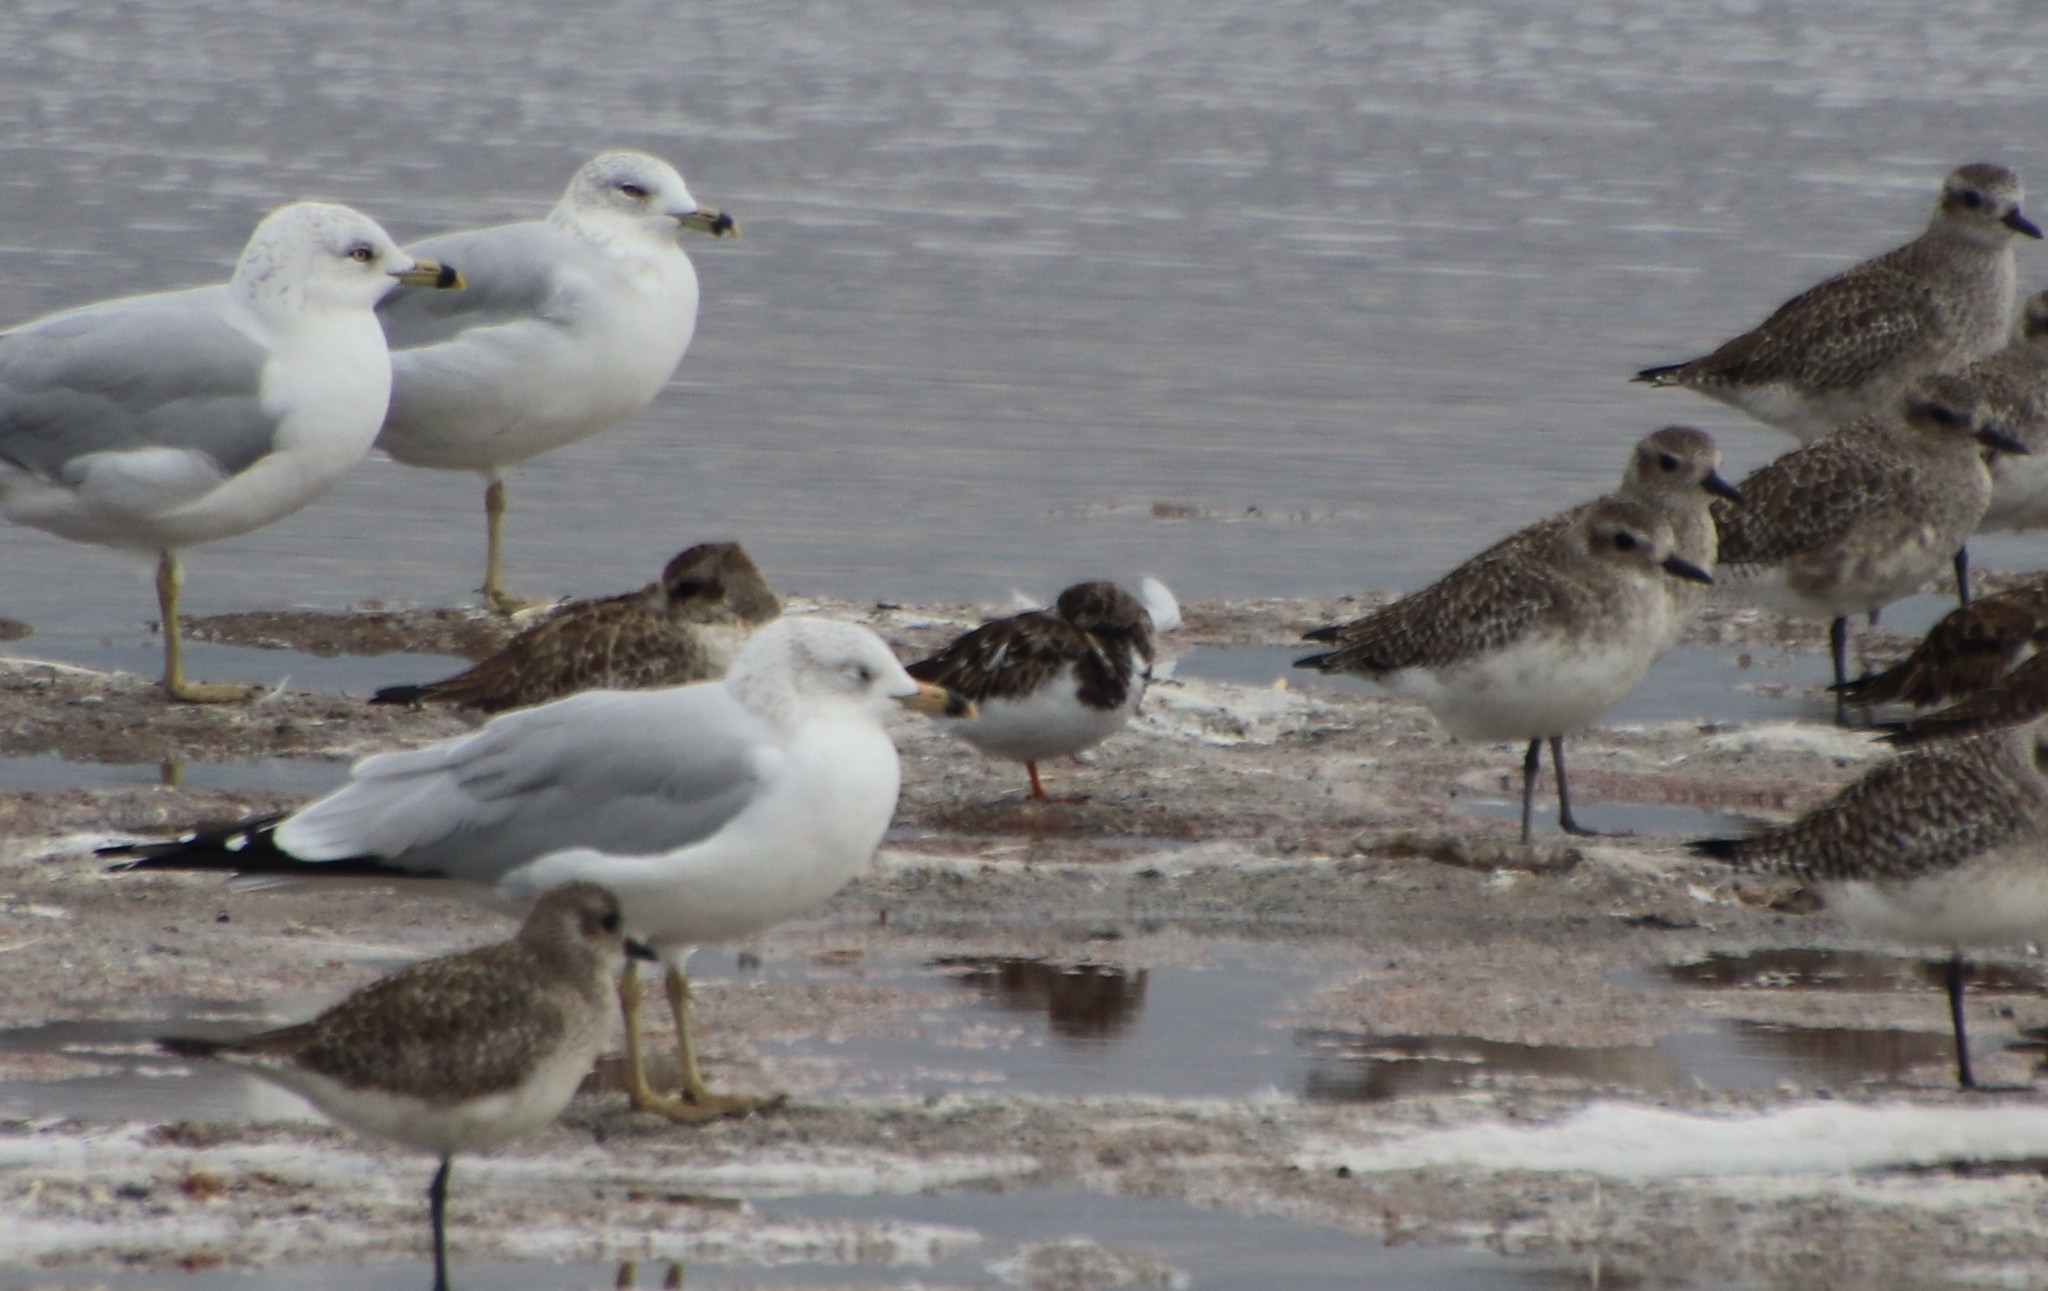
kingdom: Animalia
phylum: Chordata
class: Aves
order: Charadriiformes
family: Scolopacidae
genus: Arenaria
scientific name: Arenaria interpres
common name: Ruddy turnstone
